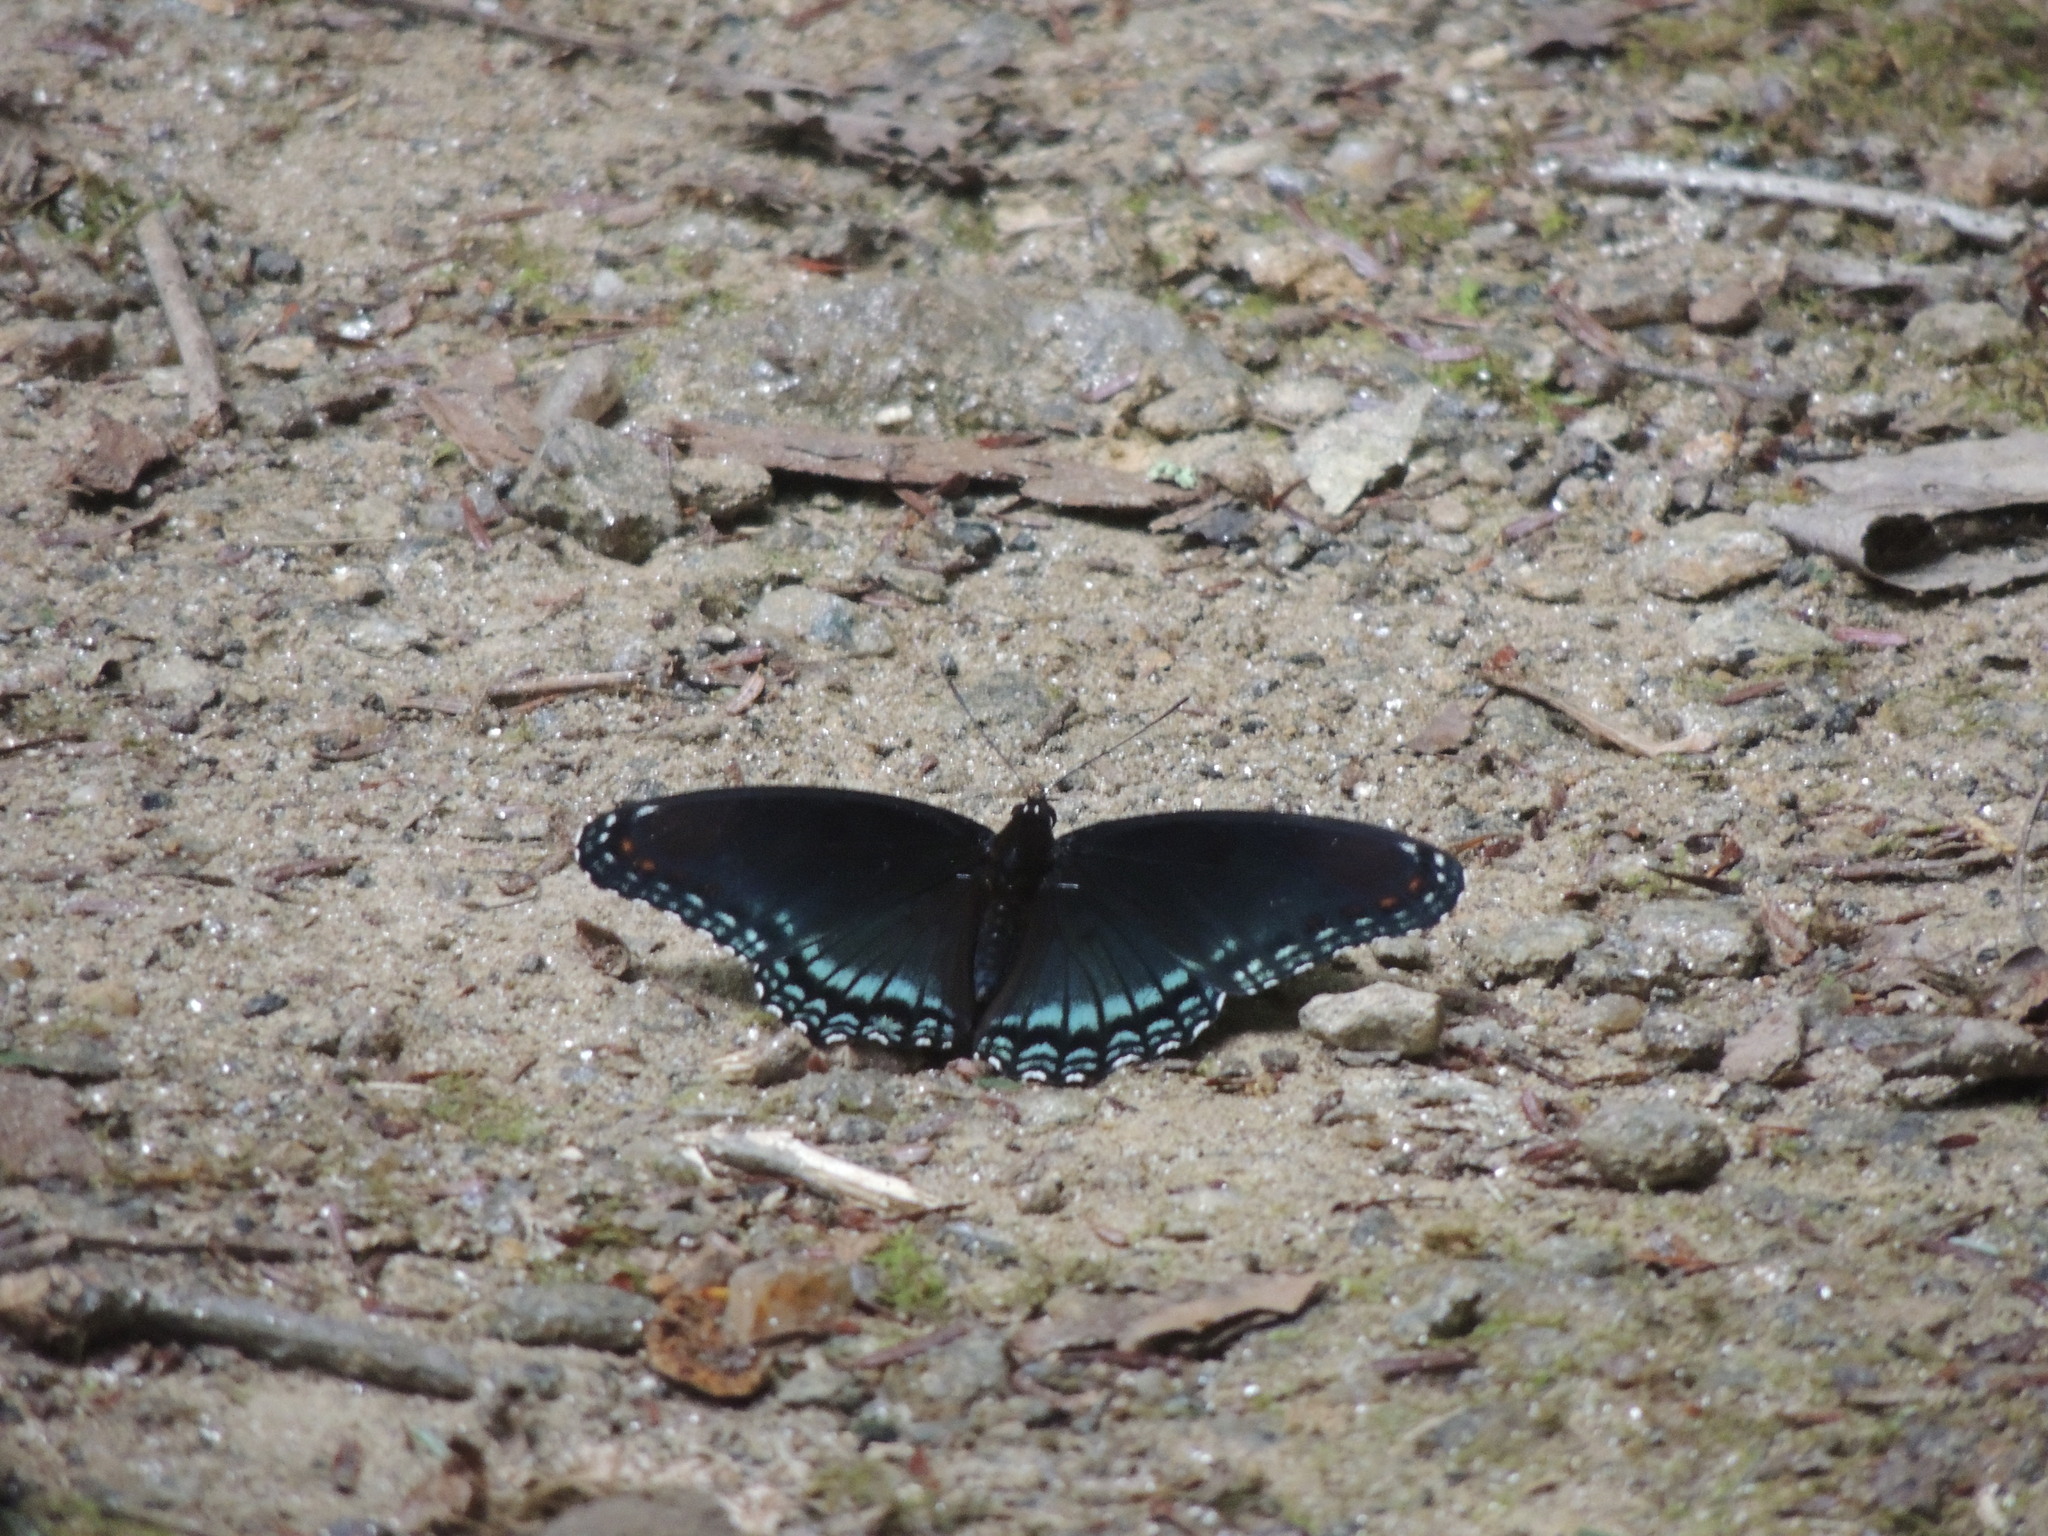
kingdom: Animalia
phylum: Arthropoda
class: Insecta
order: Lepidoptera
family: Nymphalidae
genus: Limenitis
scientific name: Limenitis arthemis
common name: Red-spotted admiral
